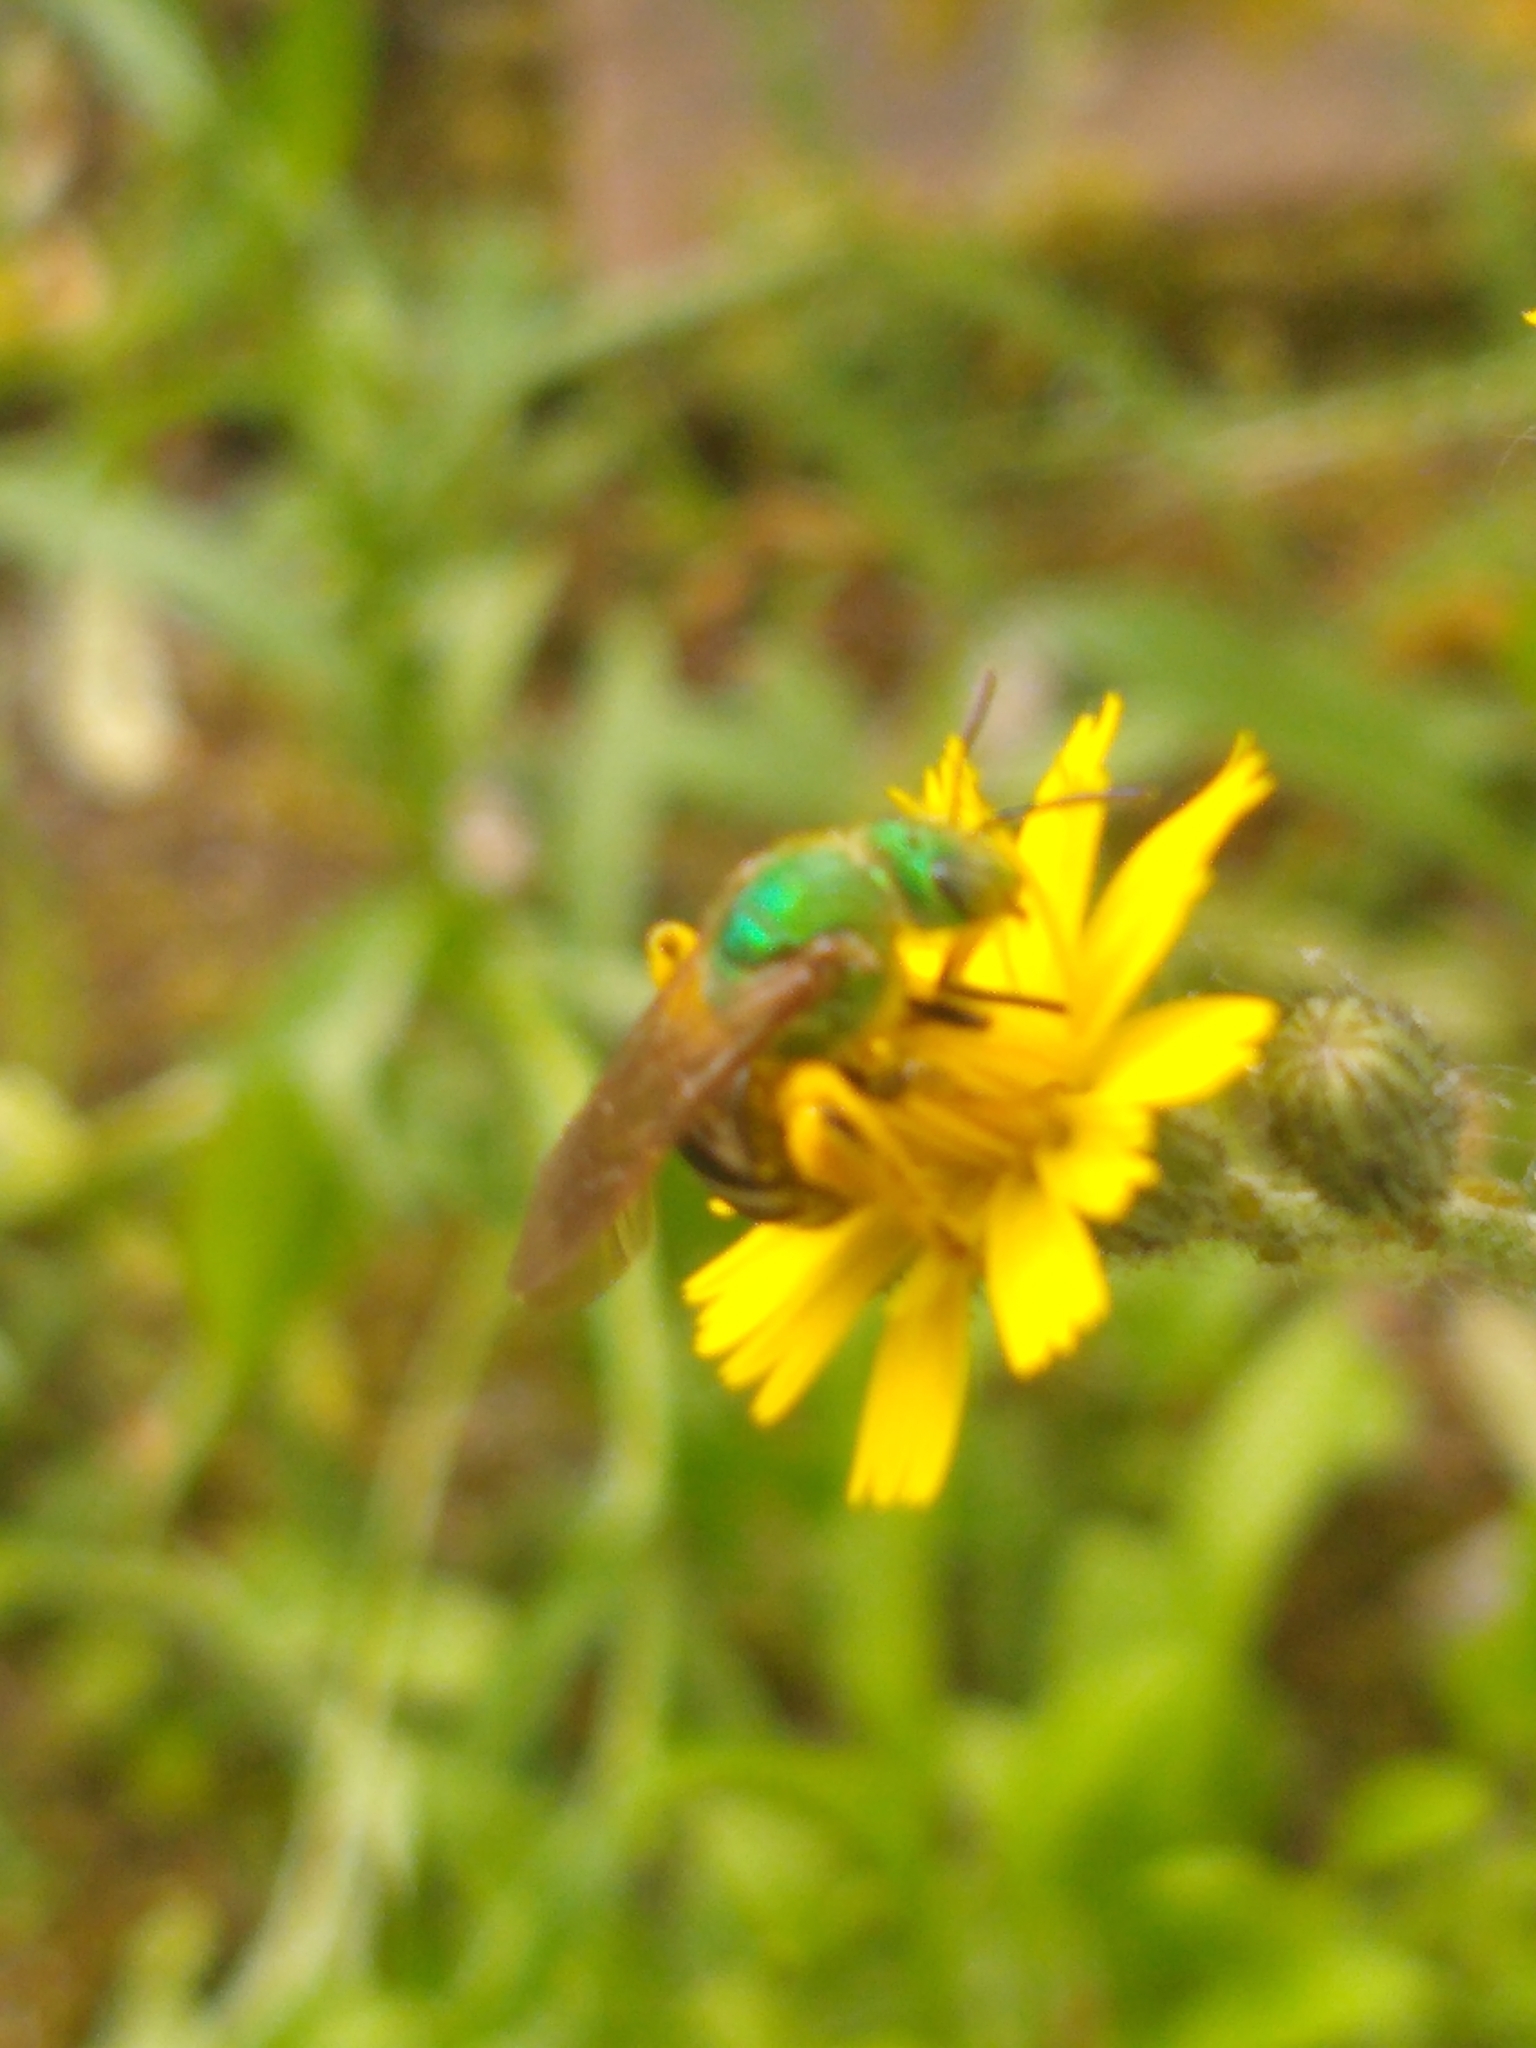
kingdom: Animalia
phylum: Arthropoda
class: Insecta
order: Hymenoptera
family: Halictidae
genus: Agapostemon
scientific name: Agapostemon virescens
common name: Bicolored striped sweat bee
